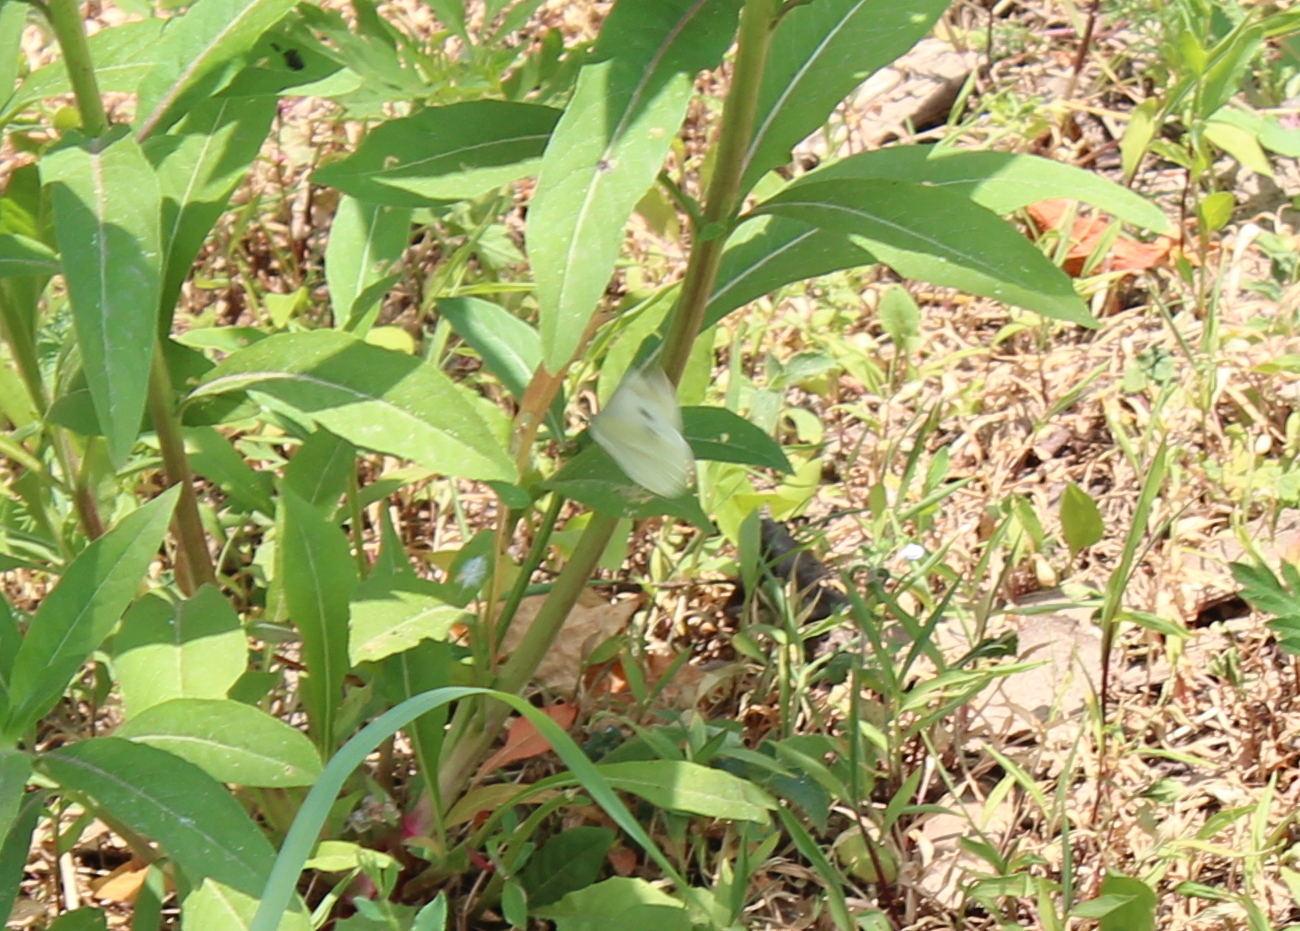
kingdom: Animalia
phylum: Arthropoda
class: Insecta
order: Lepidoptera
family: Pieridae
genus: Pieris
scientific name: Pieris rapae
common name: Small white
